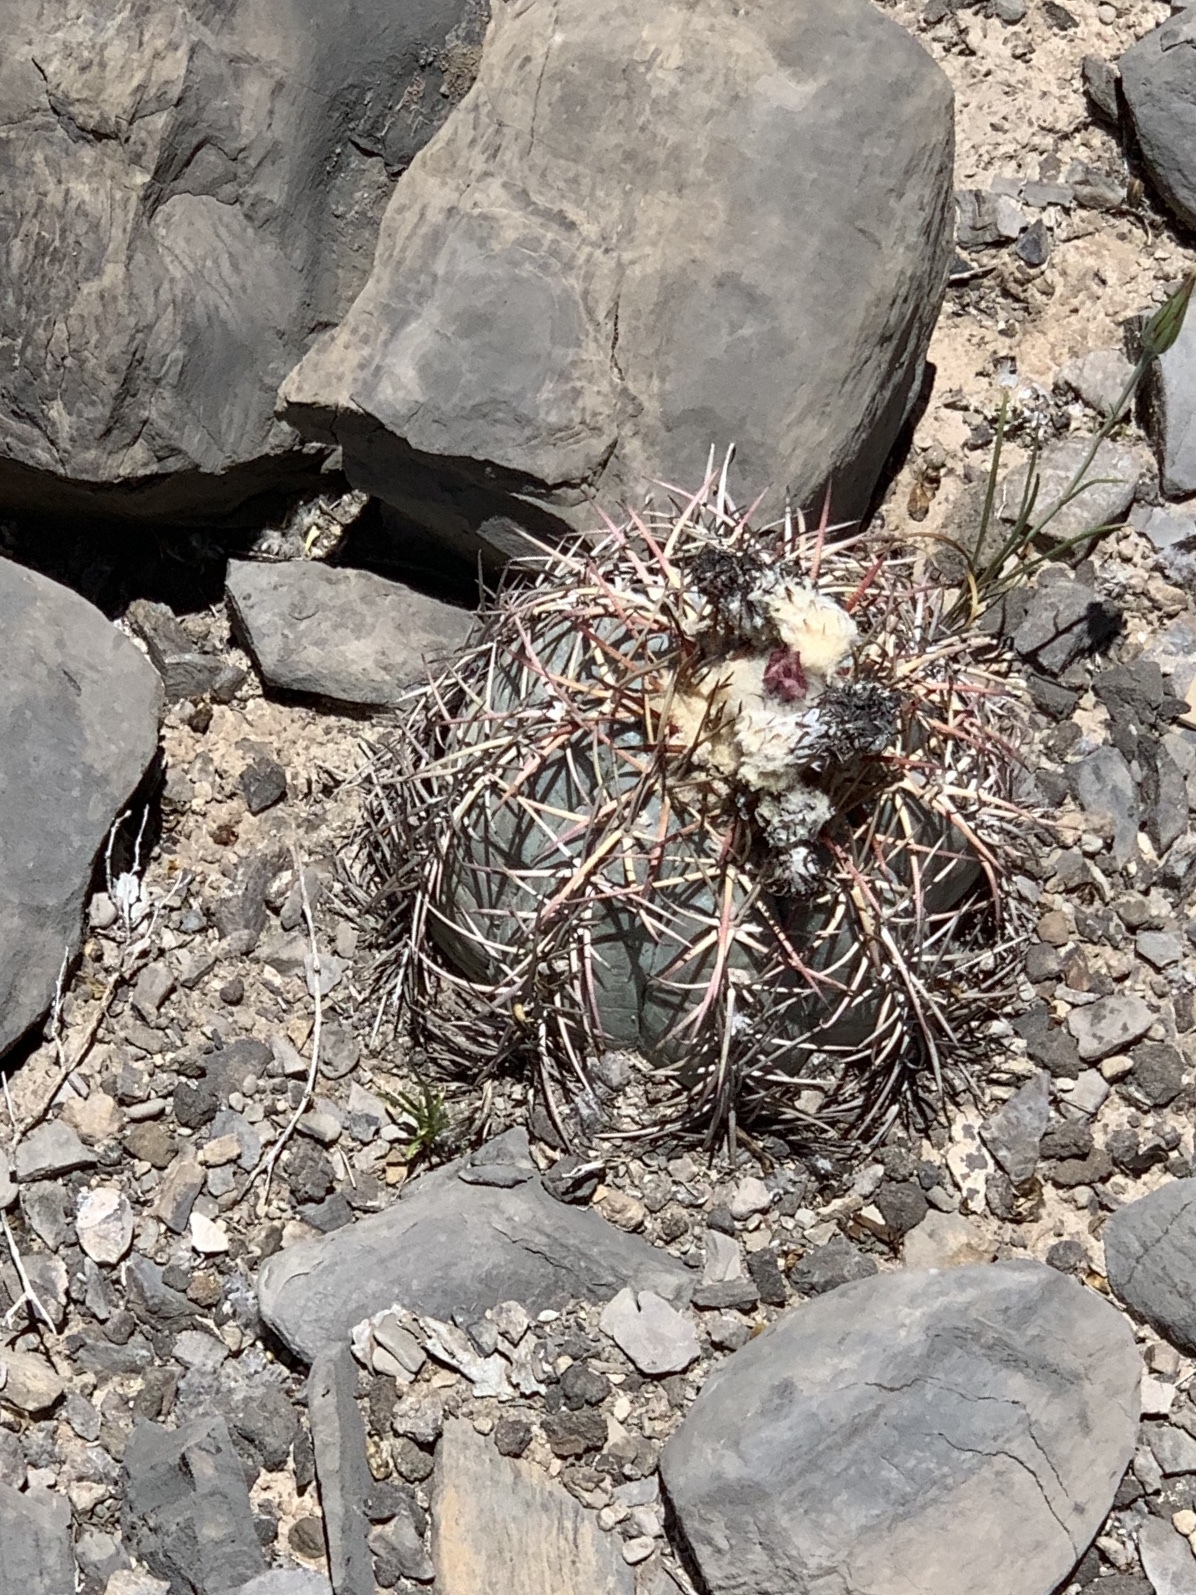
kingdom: Plantae
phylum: Tracheophyta
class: Magnoliopsida
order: Caryophyllales
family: Cactaceae
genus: Echinocactus
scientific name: Echinocactus horizonthalonius
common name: Devilshead
